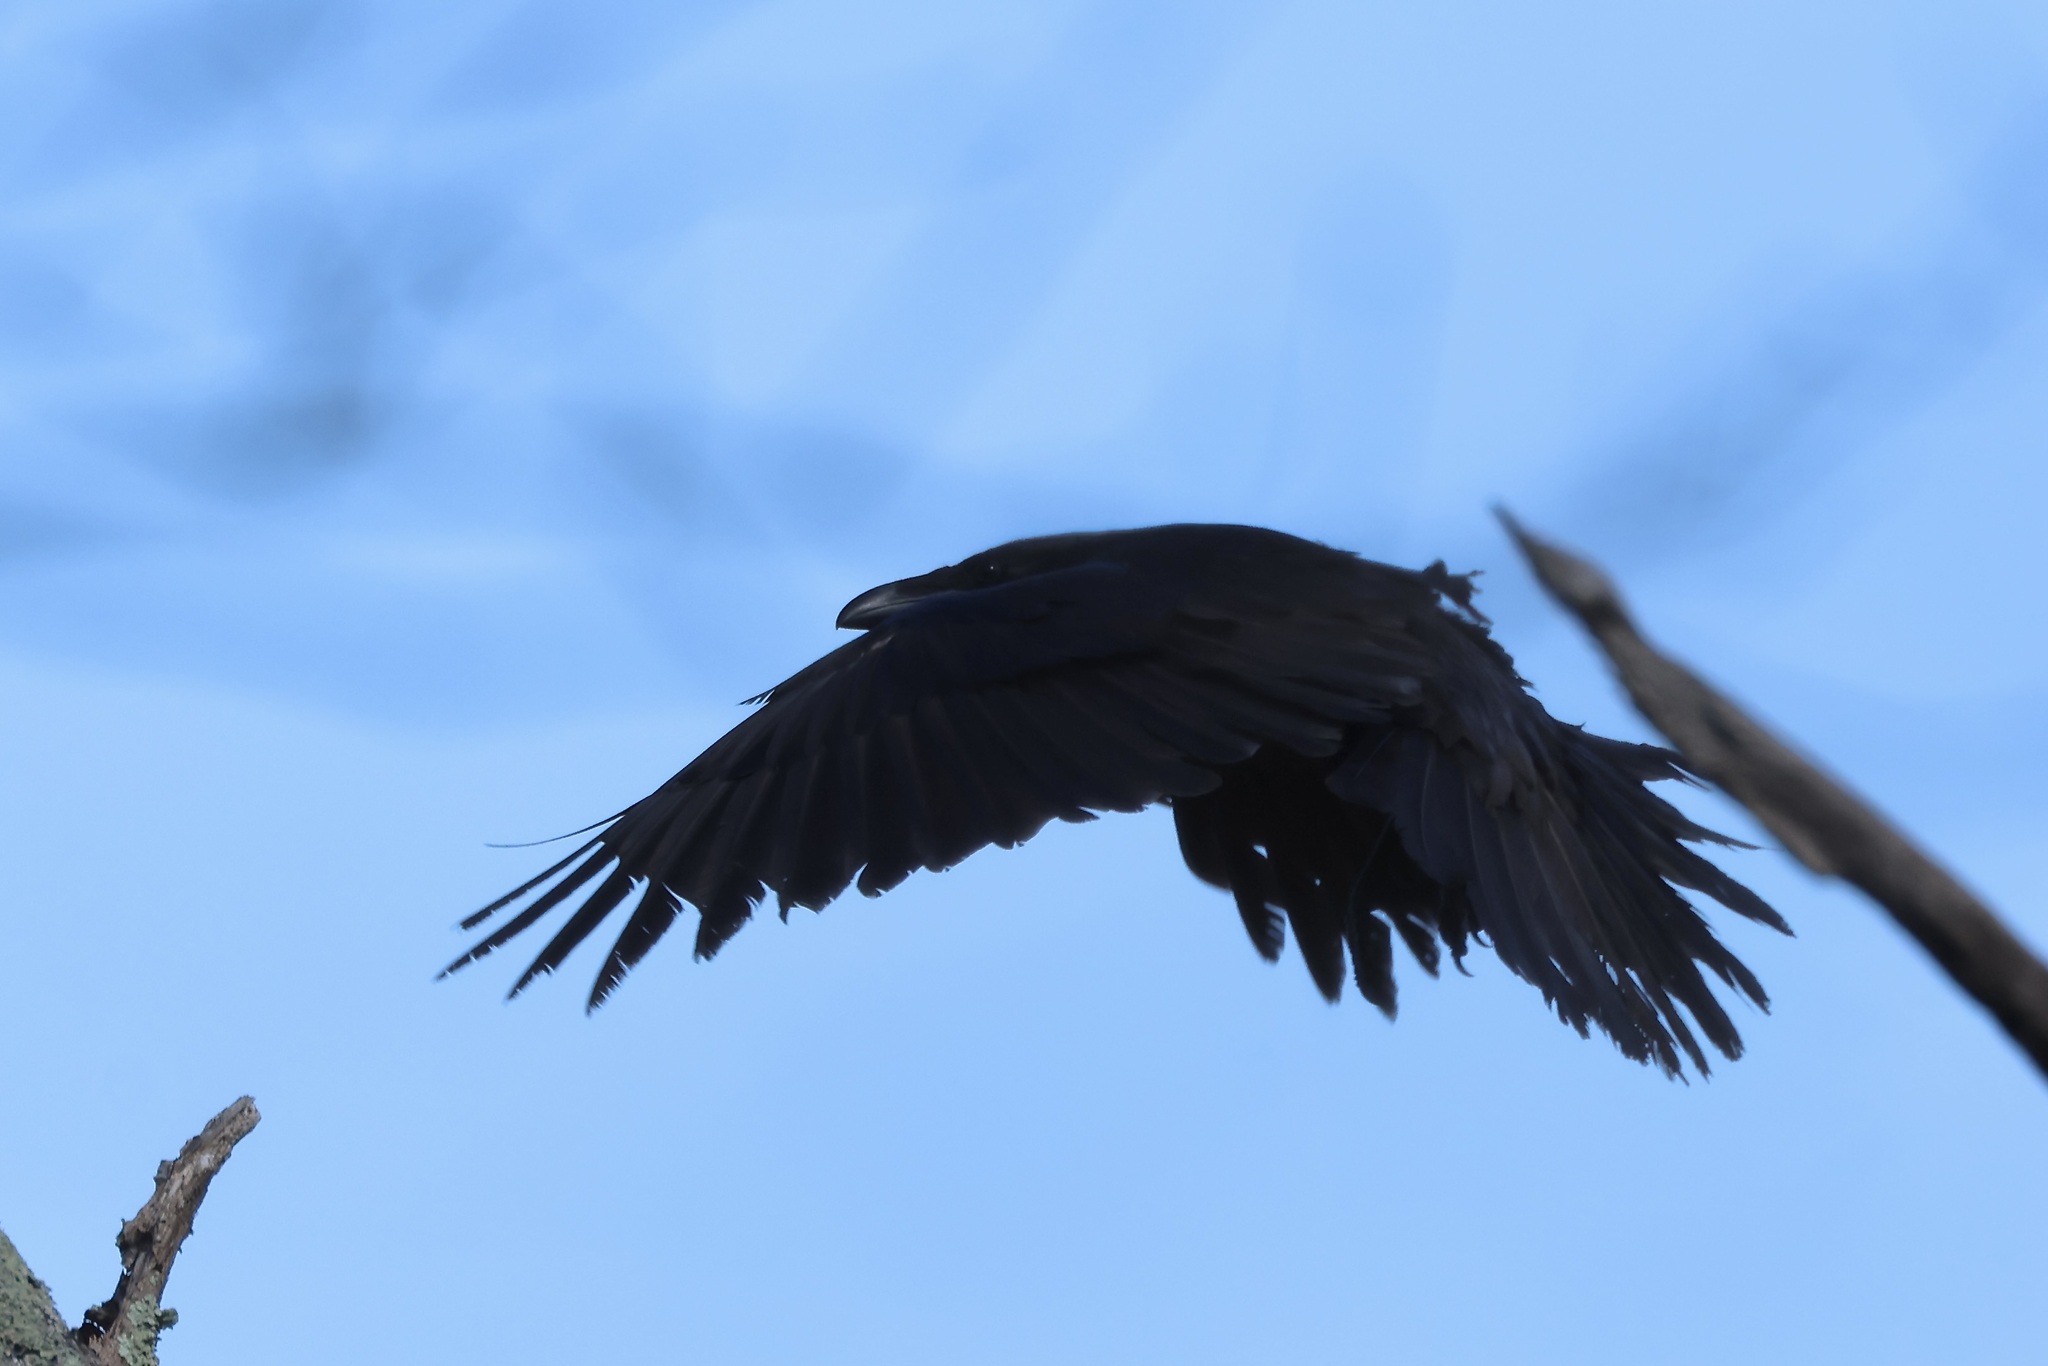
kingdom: Animalia
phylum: Chordata
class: Aves
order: Passeriformes
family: Corvidae
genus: Corvus
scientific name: Corvus corax
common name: Common raven
